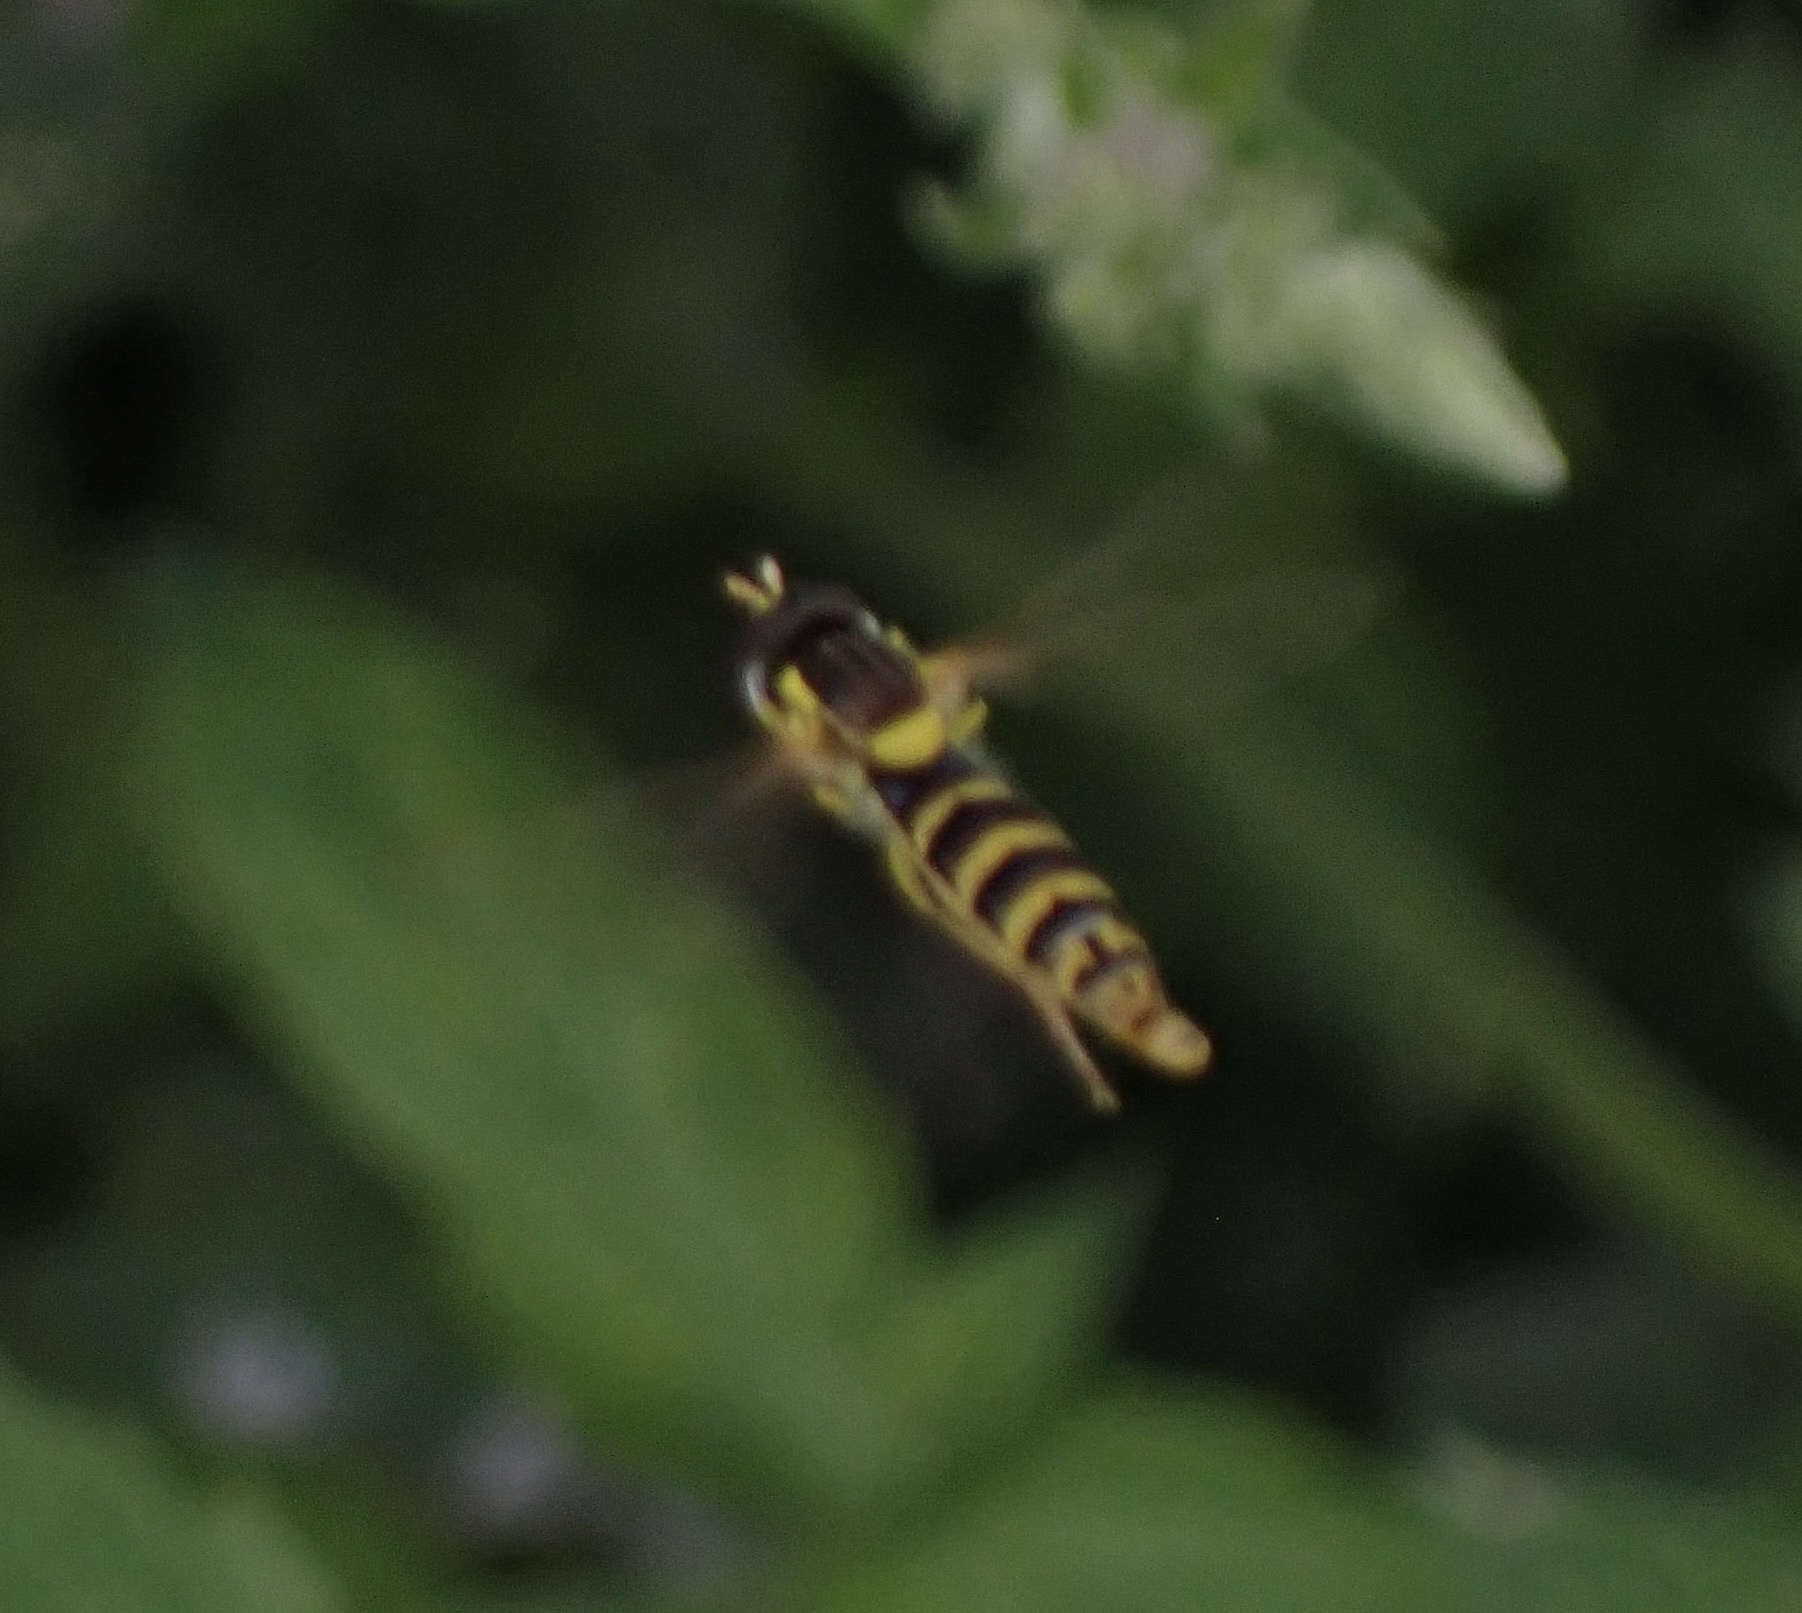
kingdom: Animalia
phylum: Arthropoda
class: Insecta
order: Diptera
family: Syrphidae
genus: Sphaerophoria
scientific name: Sphaerophoria scripta
